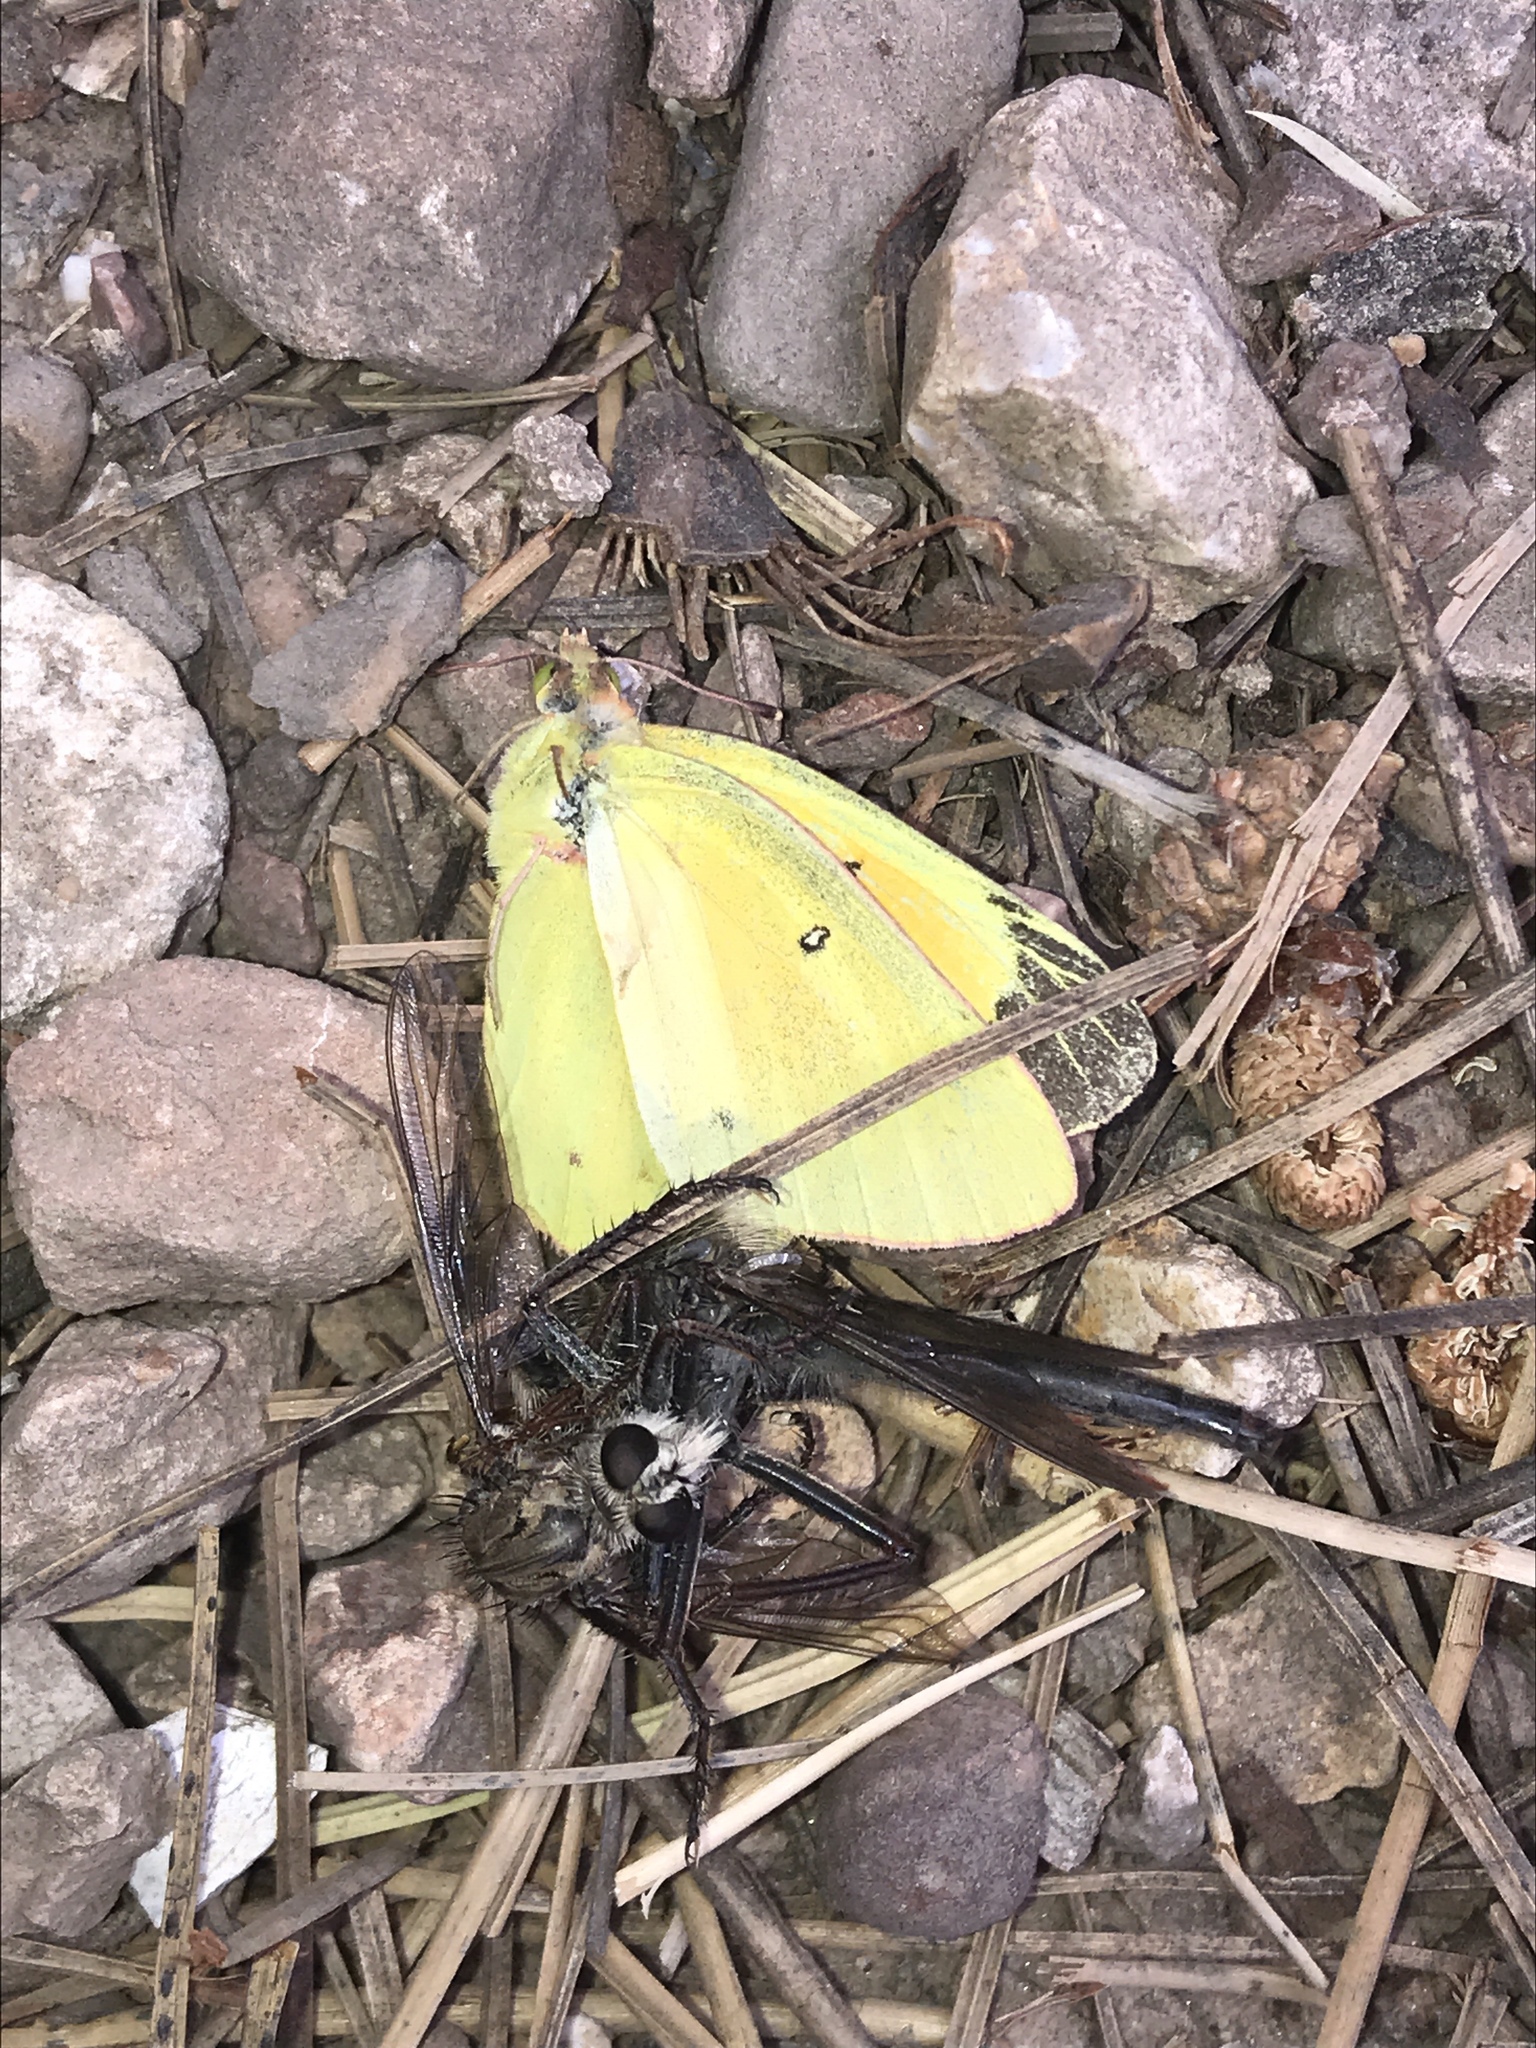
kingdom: Animalia
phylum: Arthropoda
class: Insecta
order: Lepidoptera
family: Pieridae
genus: Colias
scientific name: Colias eurytheme
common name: Alfalfa butterfly
